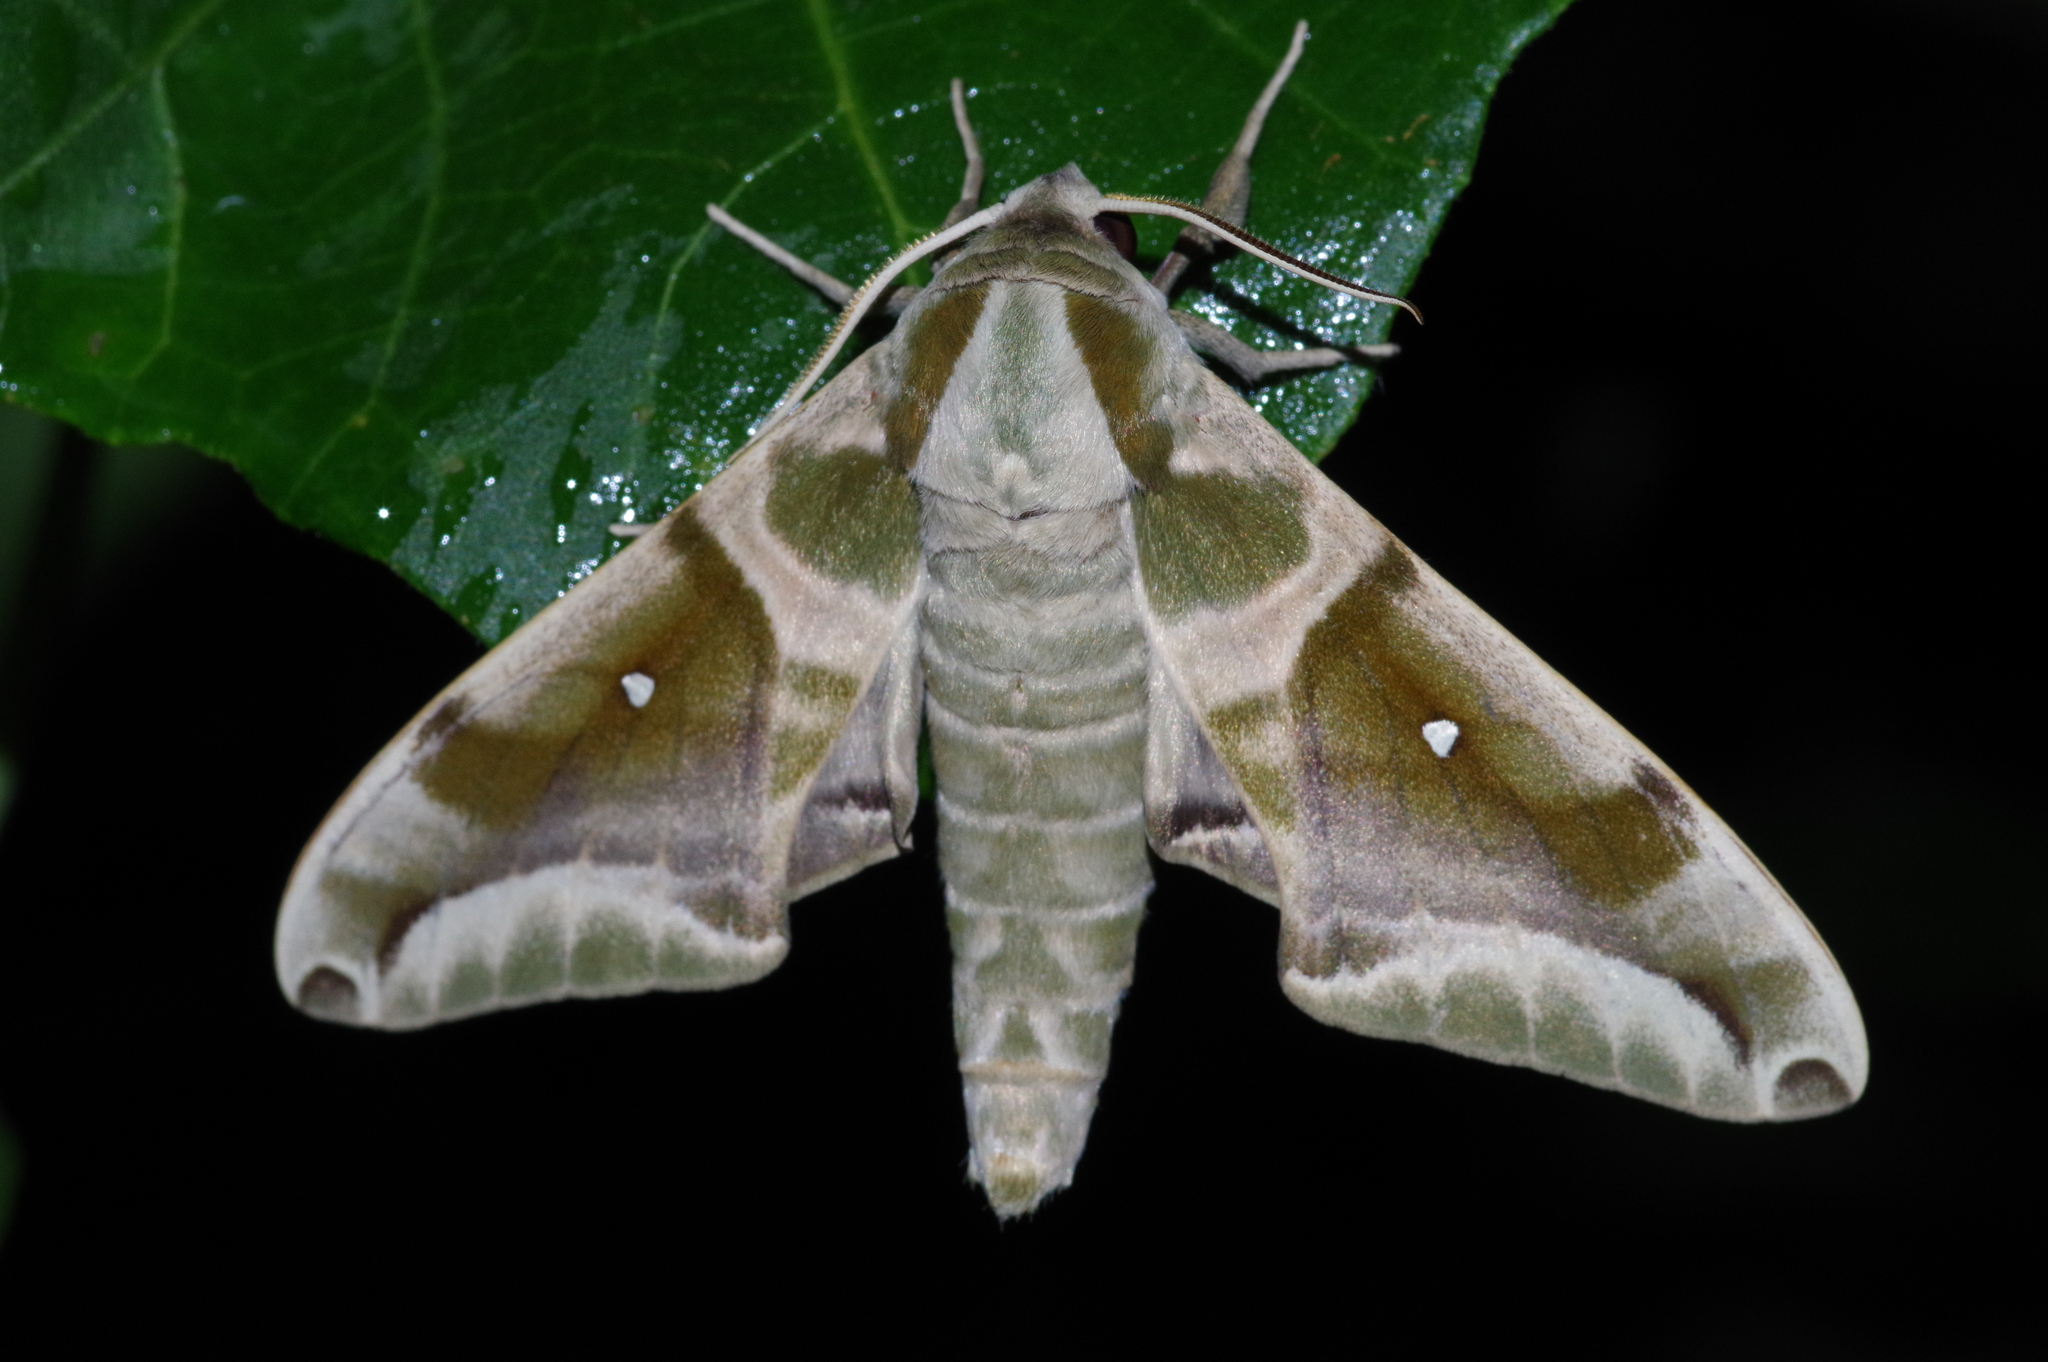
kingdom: Animalia
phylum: Arthropoda
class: Insecta
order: Lepidoptera
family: Sphingidae
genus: Parum
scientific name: Parum colligata
